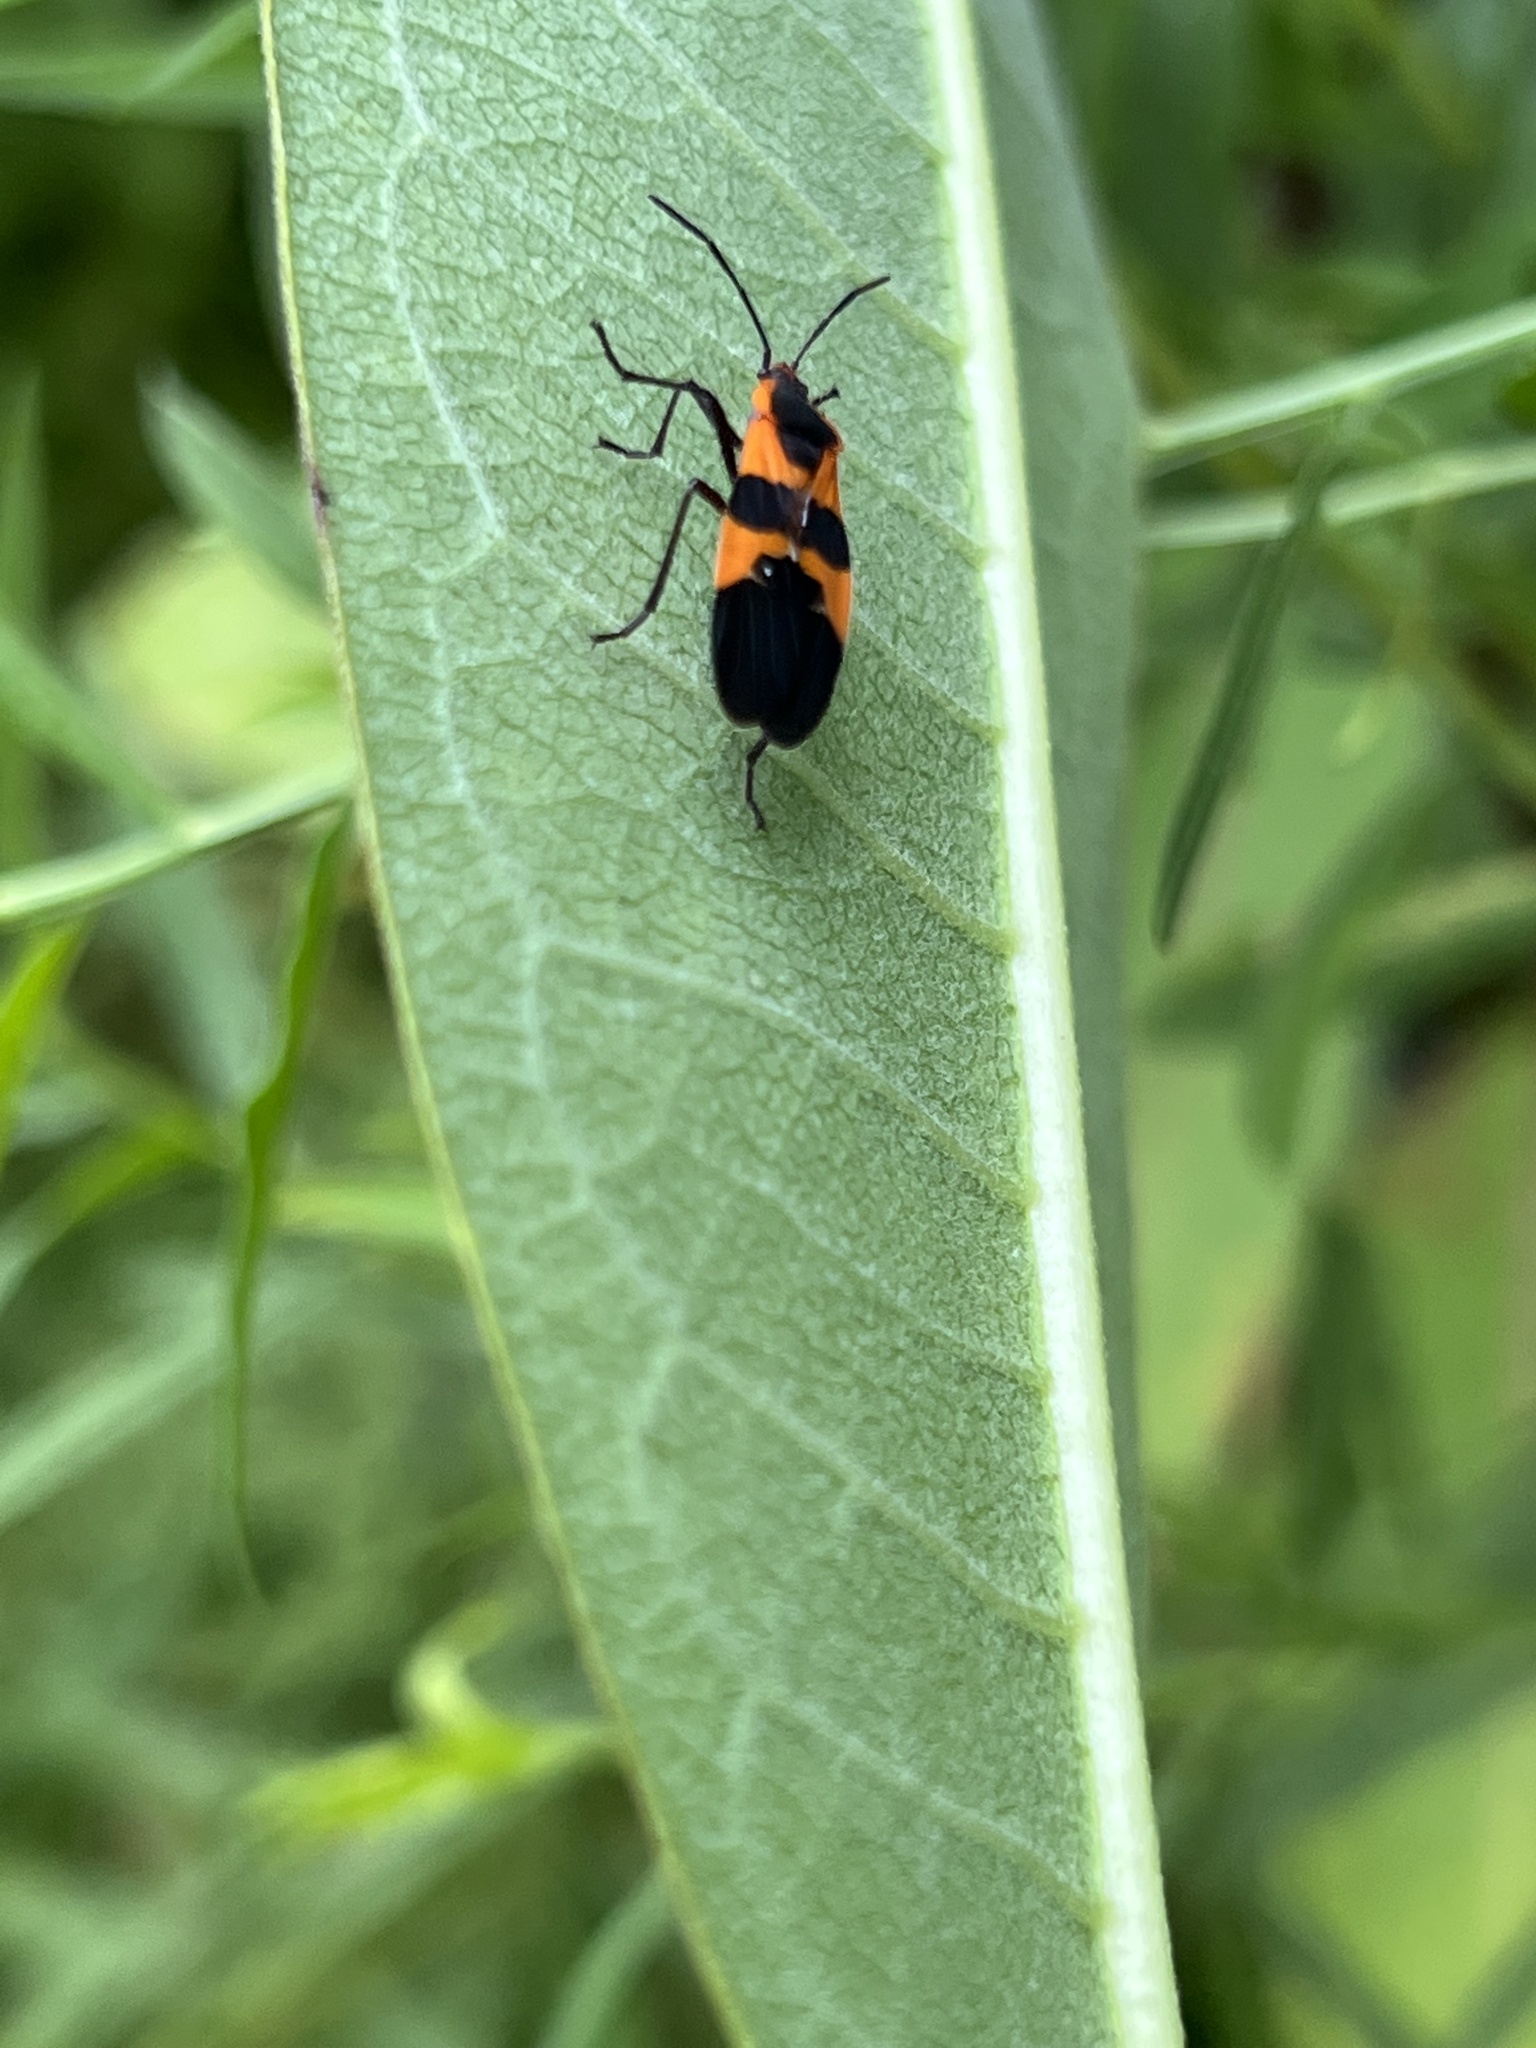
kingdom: Animalia
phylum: Arthropoda
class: Insecta
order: Hemiptera
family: Lygaeidae
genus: Oncopeltus
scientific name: Oncopeltus fasciatus
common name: Large milkweed bug
